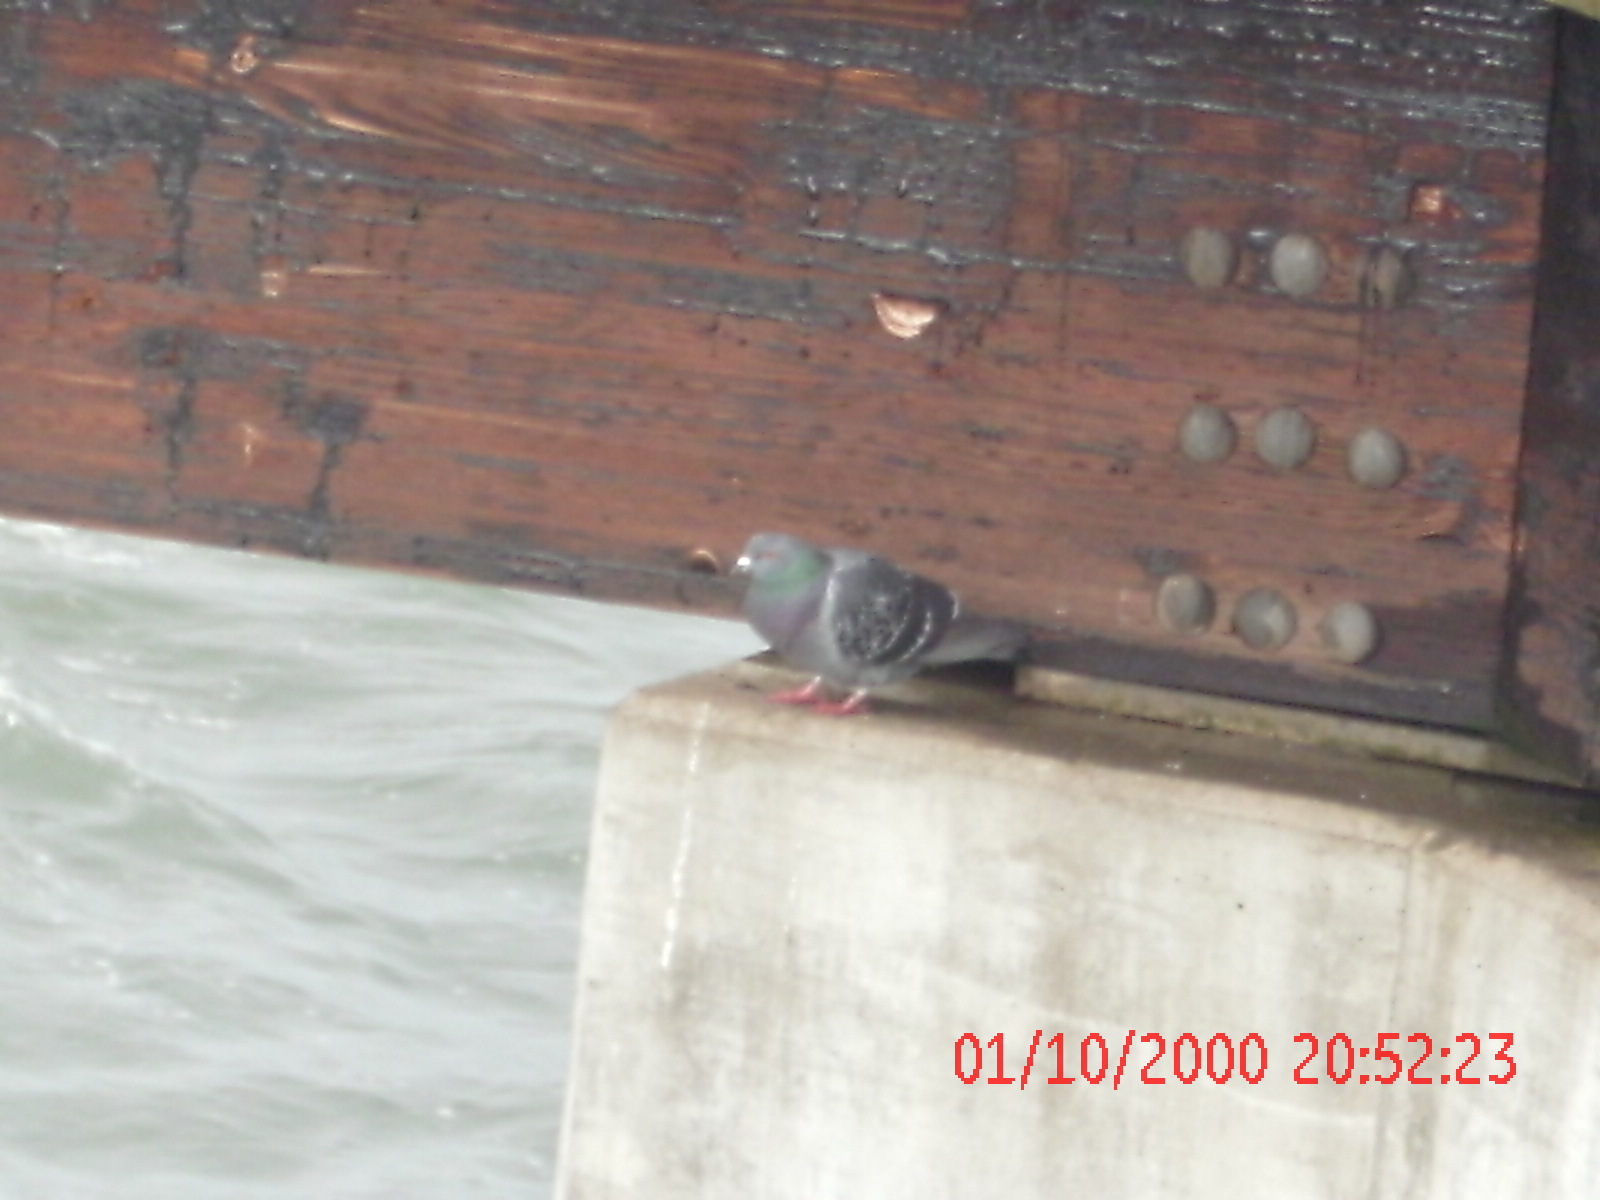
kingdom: Animalia
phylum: Chordata
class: Aves
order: Columbiformes
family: Columbidae
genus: Columba
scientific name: Columba livia
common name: Rock pigeon
